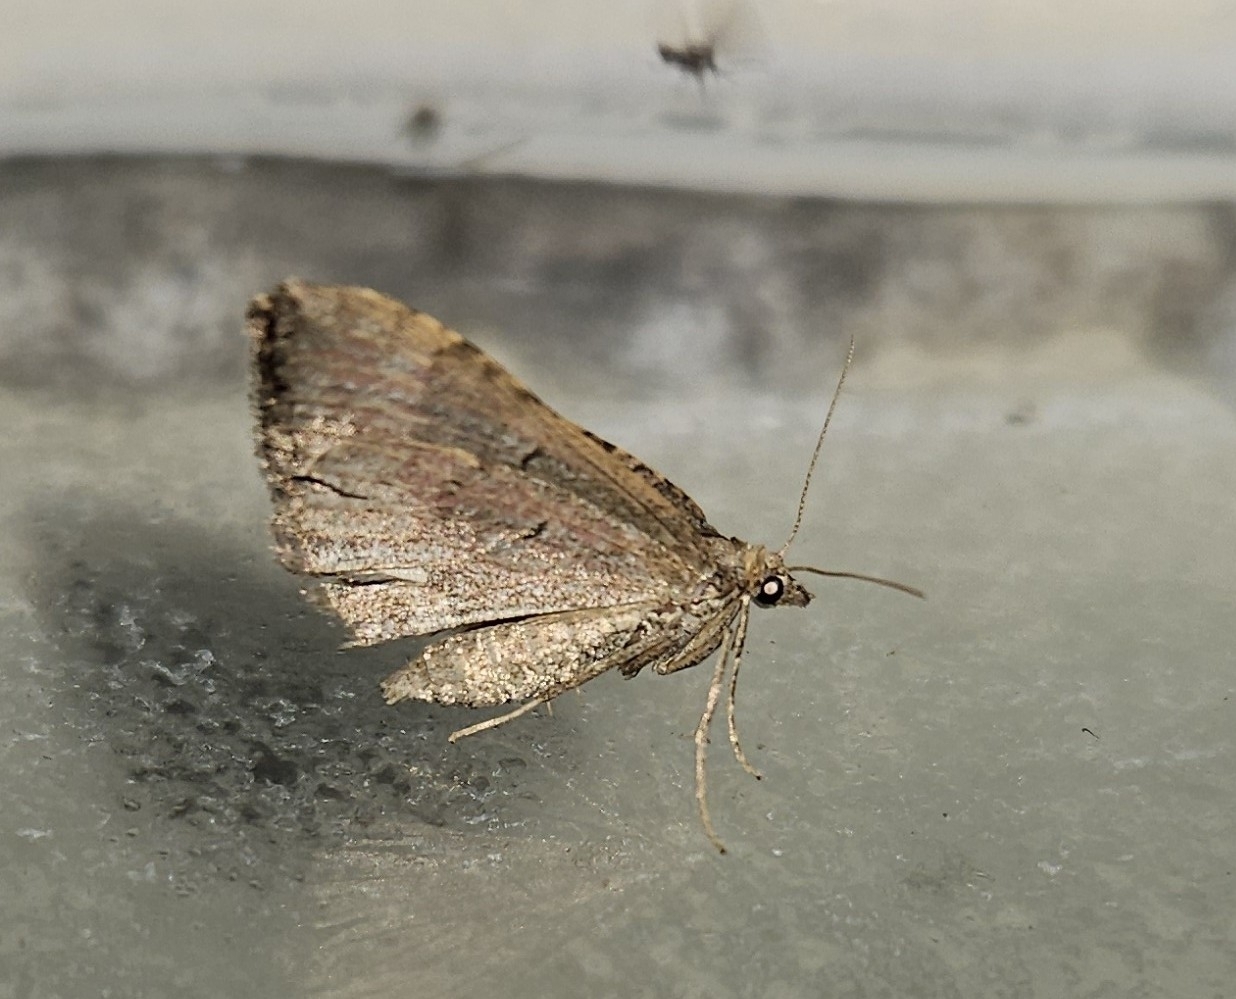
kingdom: Animalia
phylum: Arthropoda
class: Insecta
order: Lepidoptera
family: Geometridae
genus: Epyaxa
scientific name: Epyaxa rosearia
